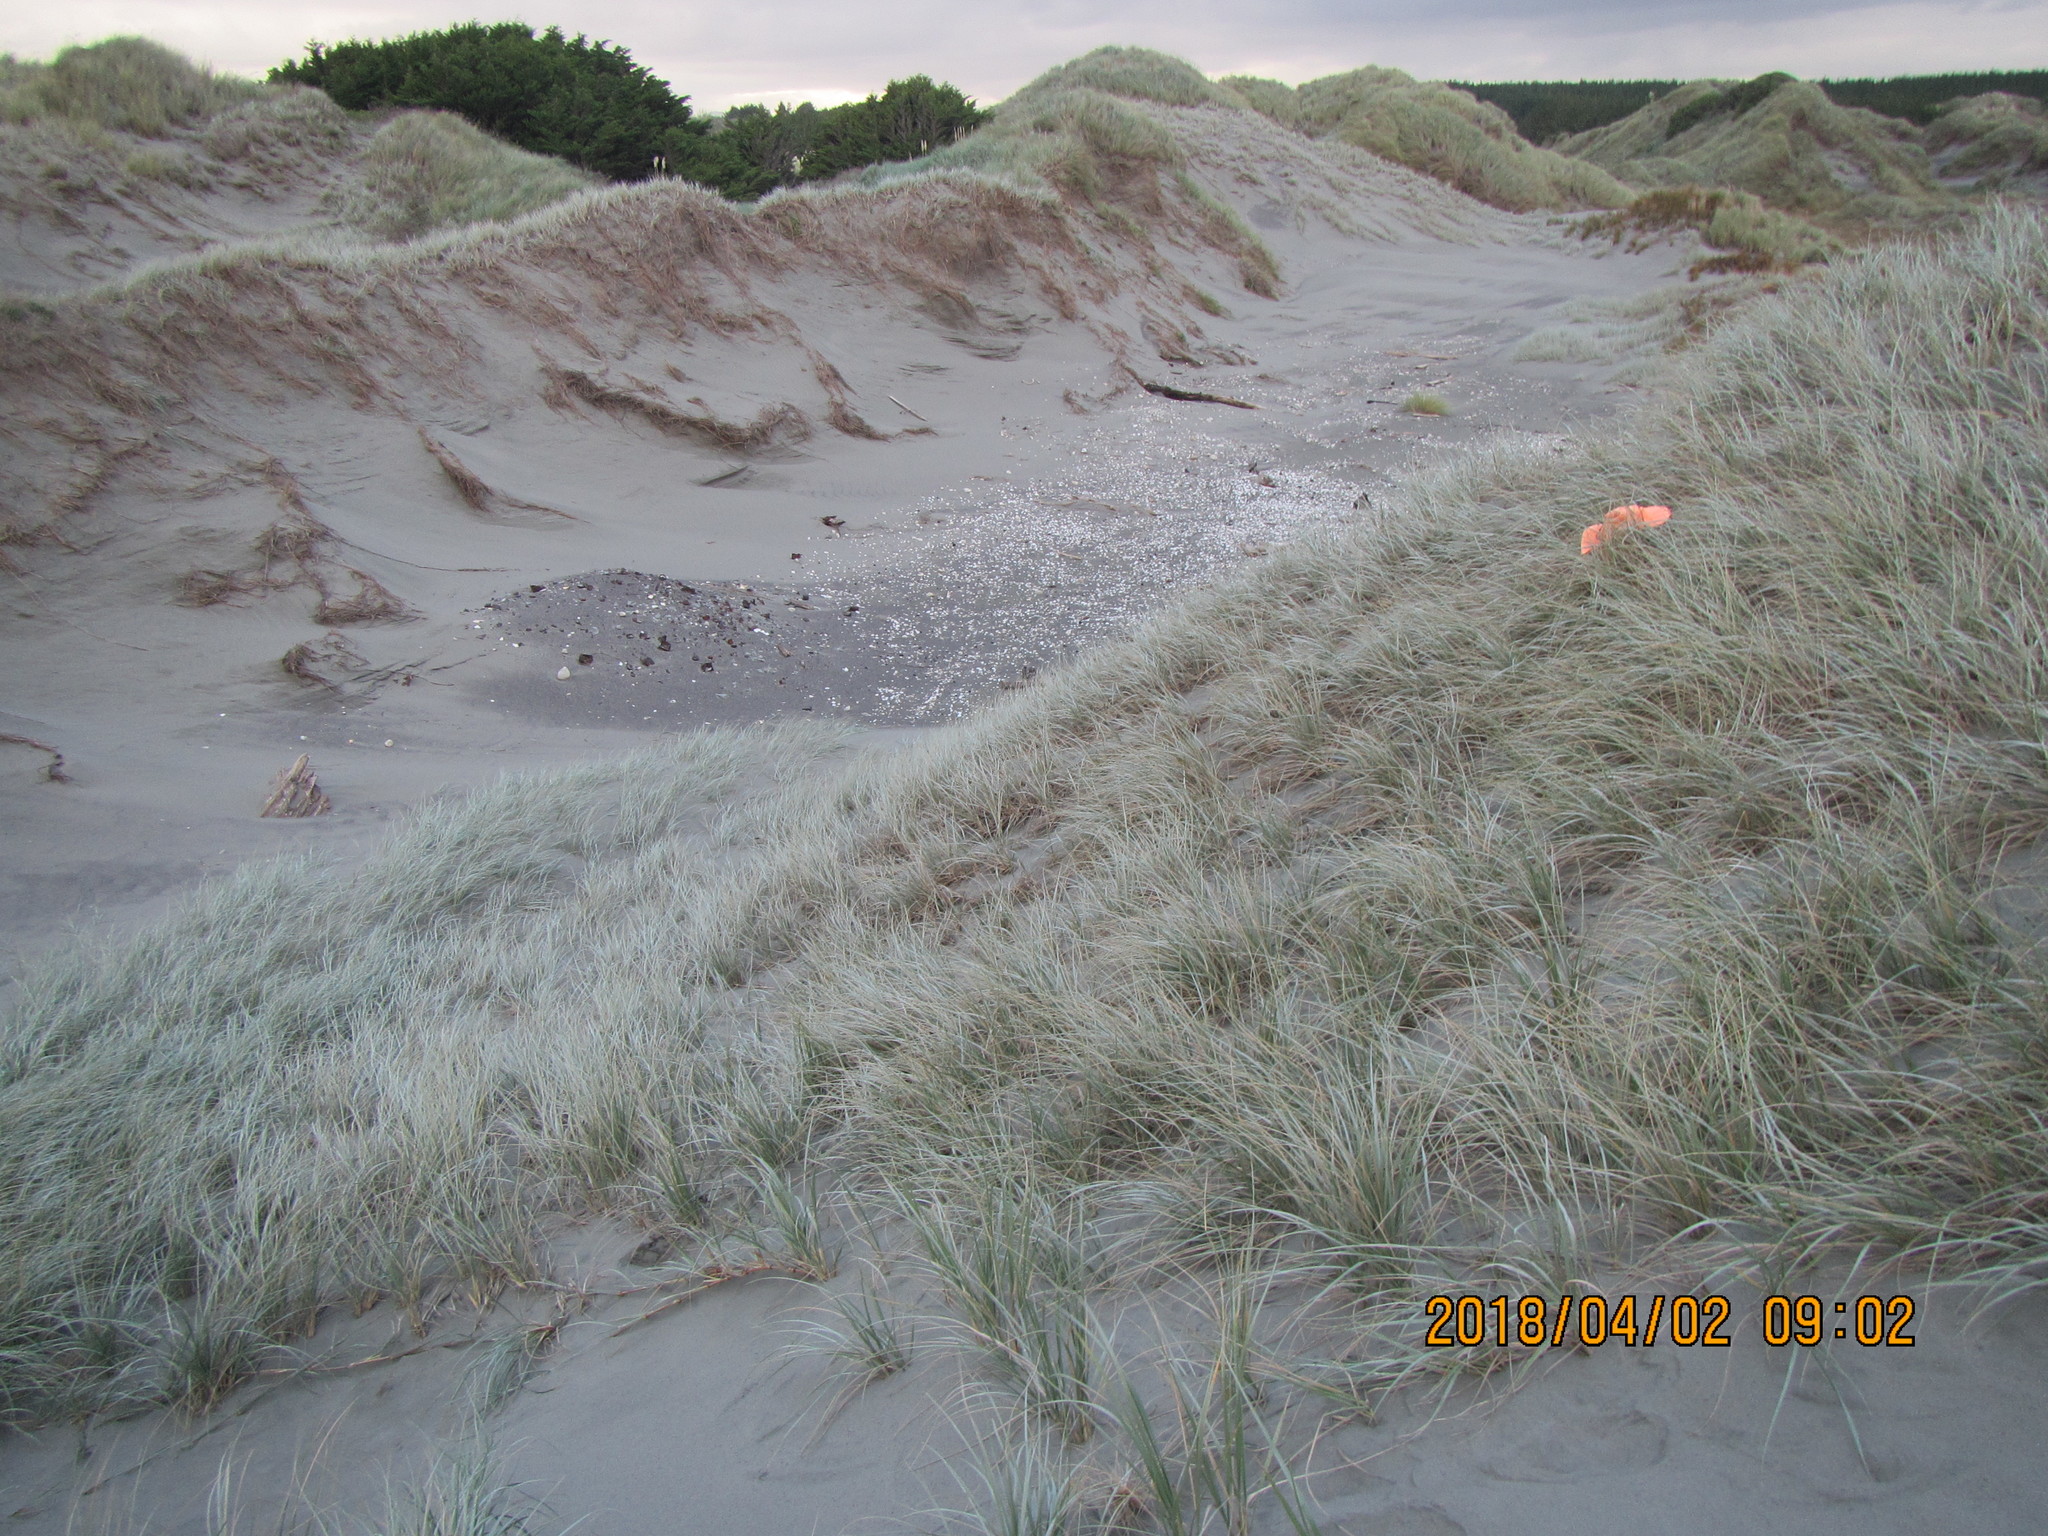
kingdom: Plantae
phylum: Tracheophyta
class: Liliopsida
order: Poales
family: Poaceae
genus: Spinifex
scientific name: Spinifex sericeus
